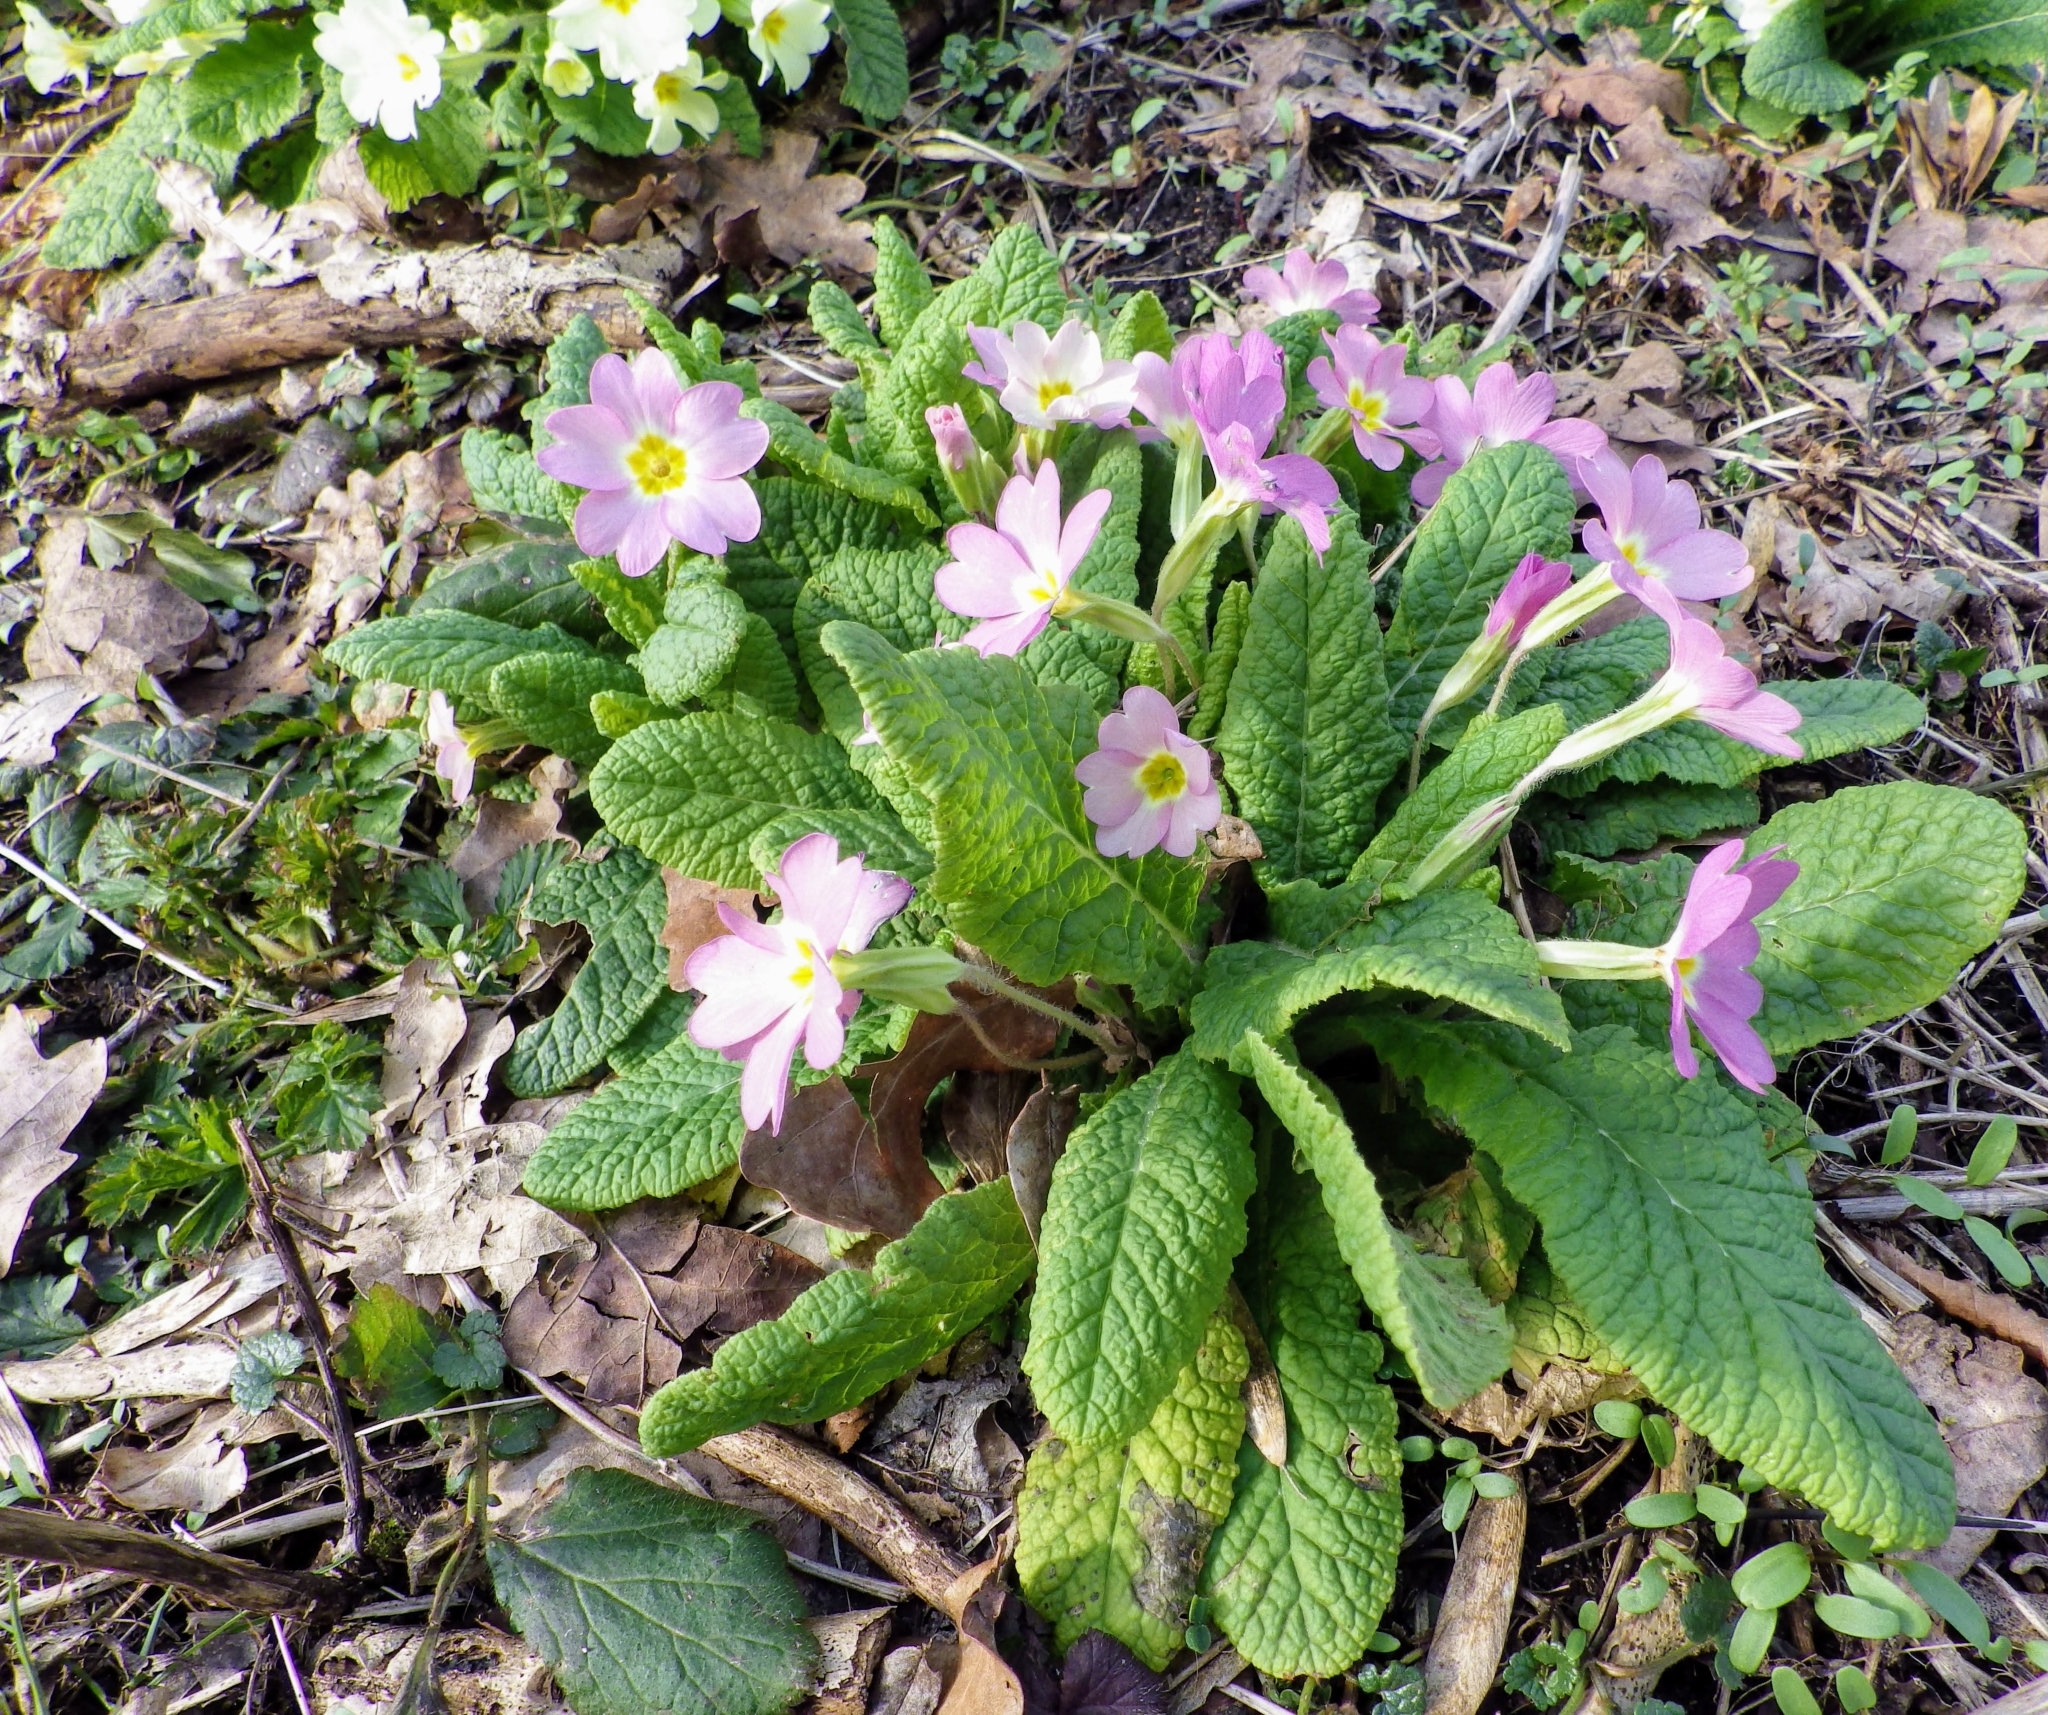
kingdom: Plantae
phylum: Tracheophyta
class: Magnoliopsida
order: Ericales
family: Primulaceae
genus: Primula
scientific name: Primula vulgaris
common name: Primrose
